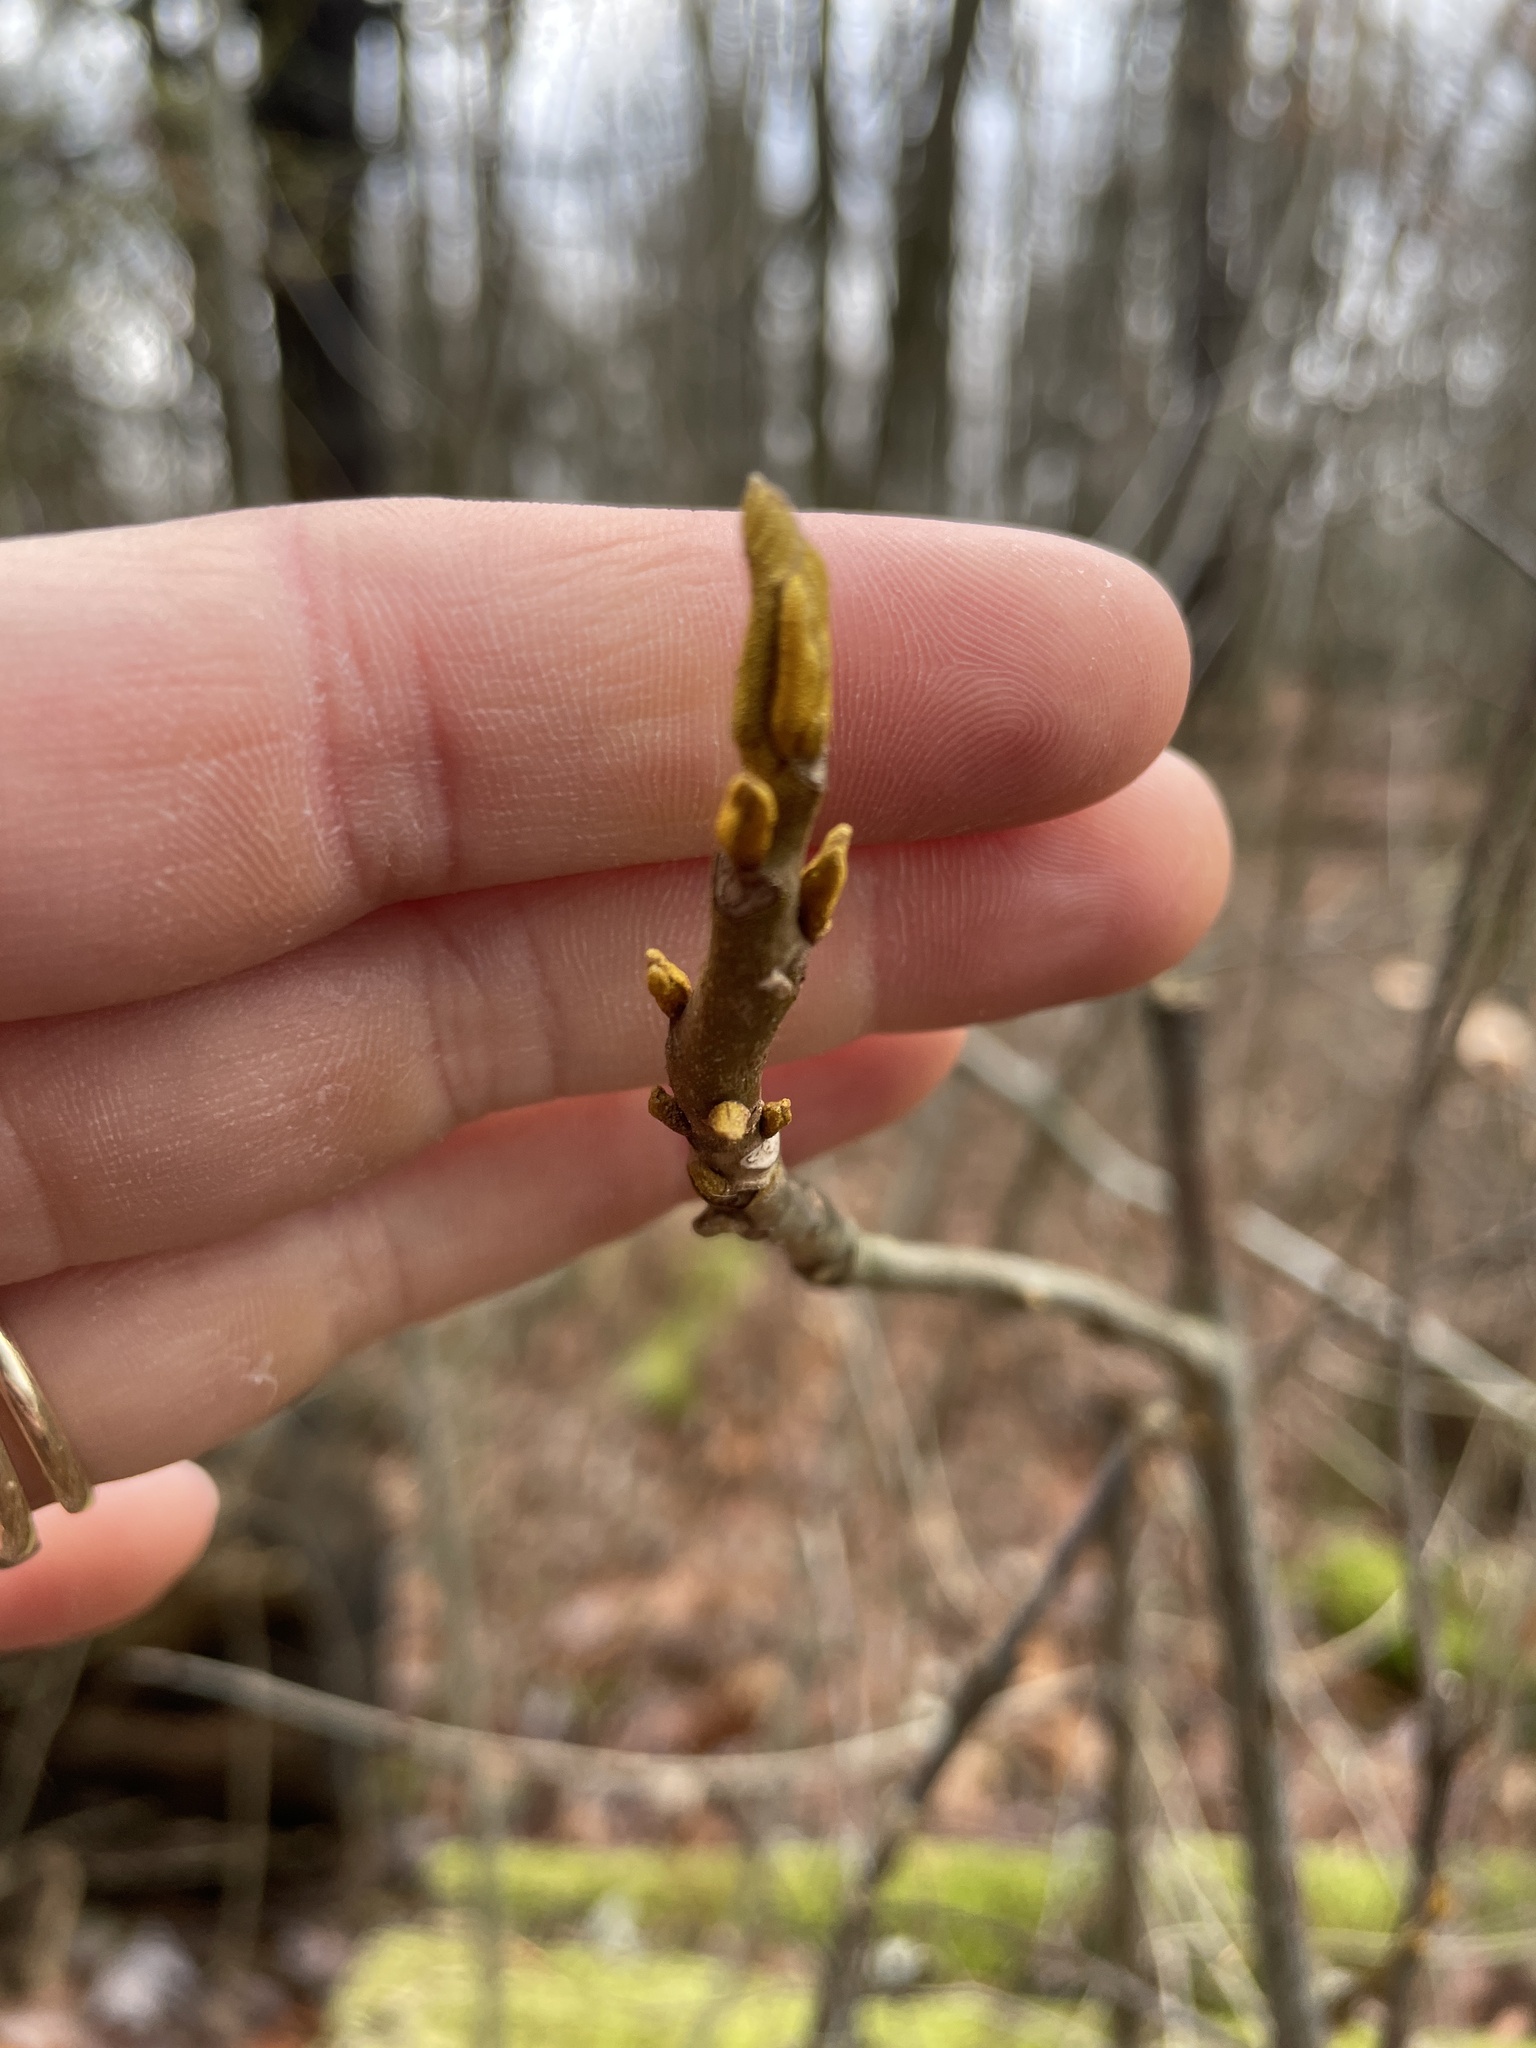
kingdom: Plantae
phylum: Tracheophyta
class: Magnoliopsida
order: Fagales
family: Juglandaceae
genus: Carya
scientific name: Carya cordiformis
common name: Bitternut hickory
